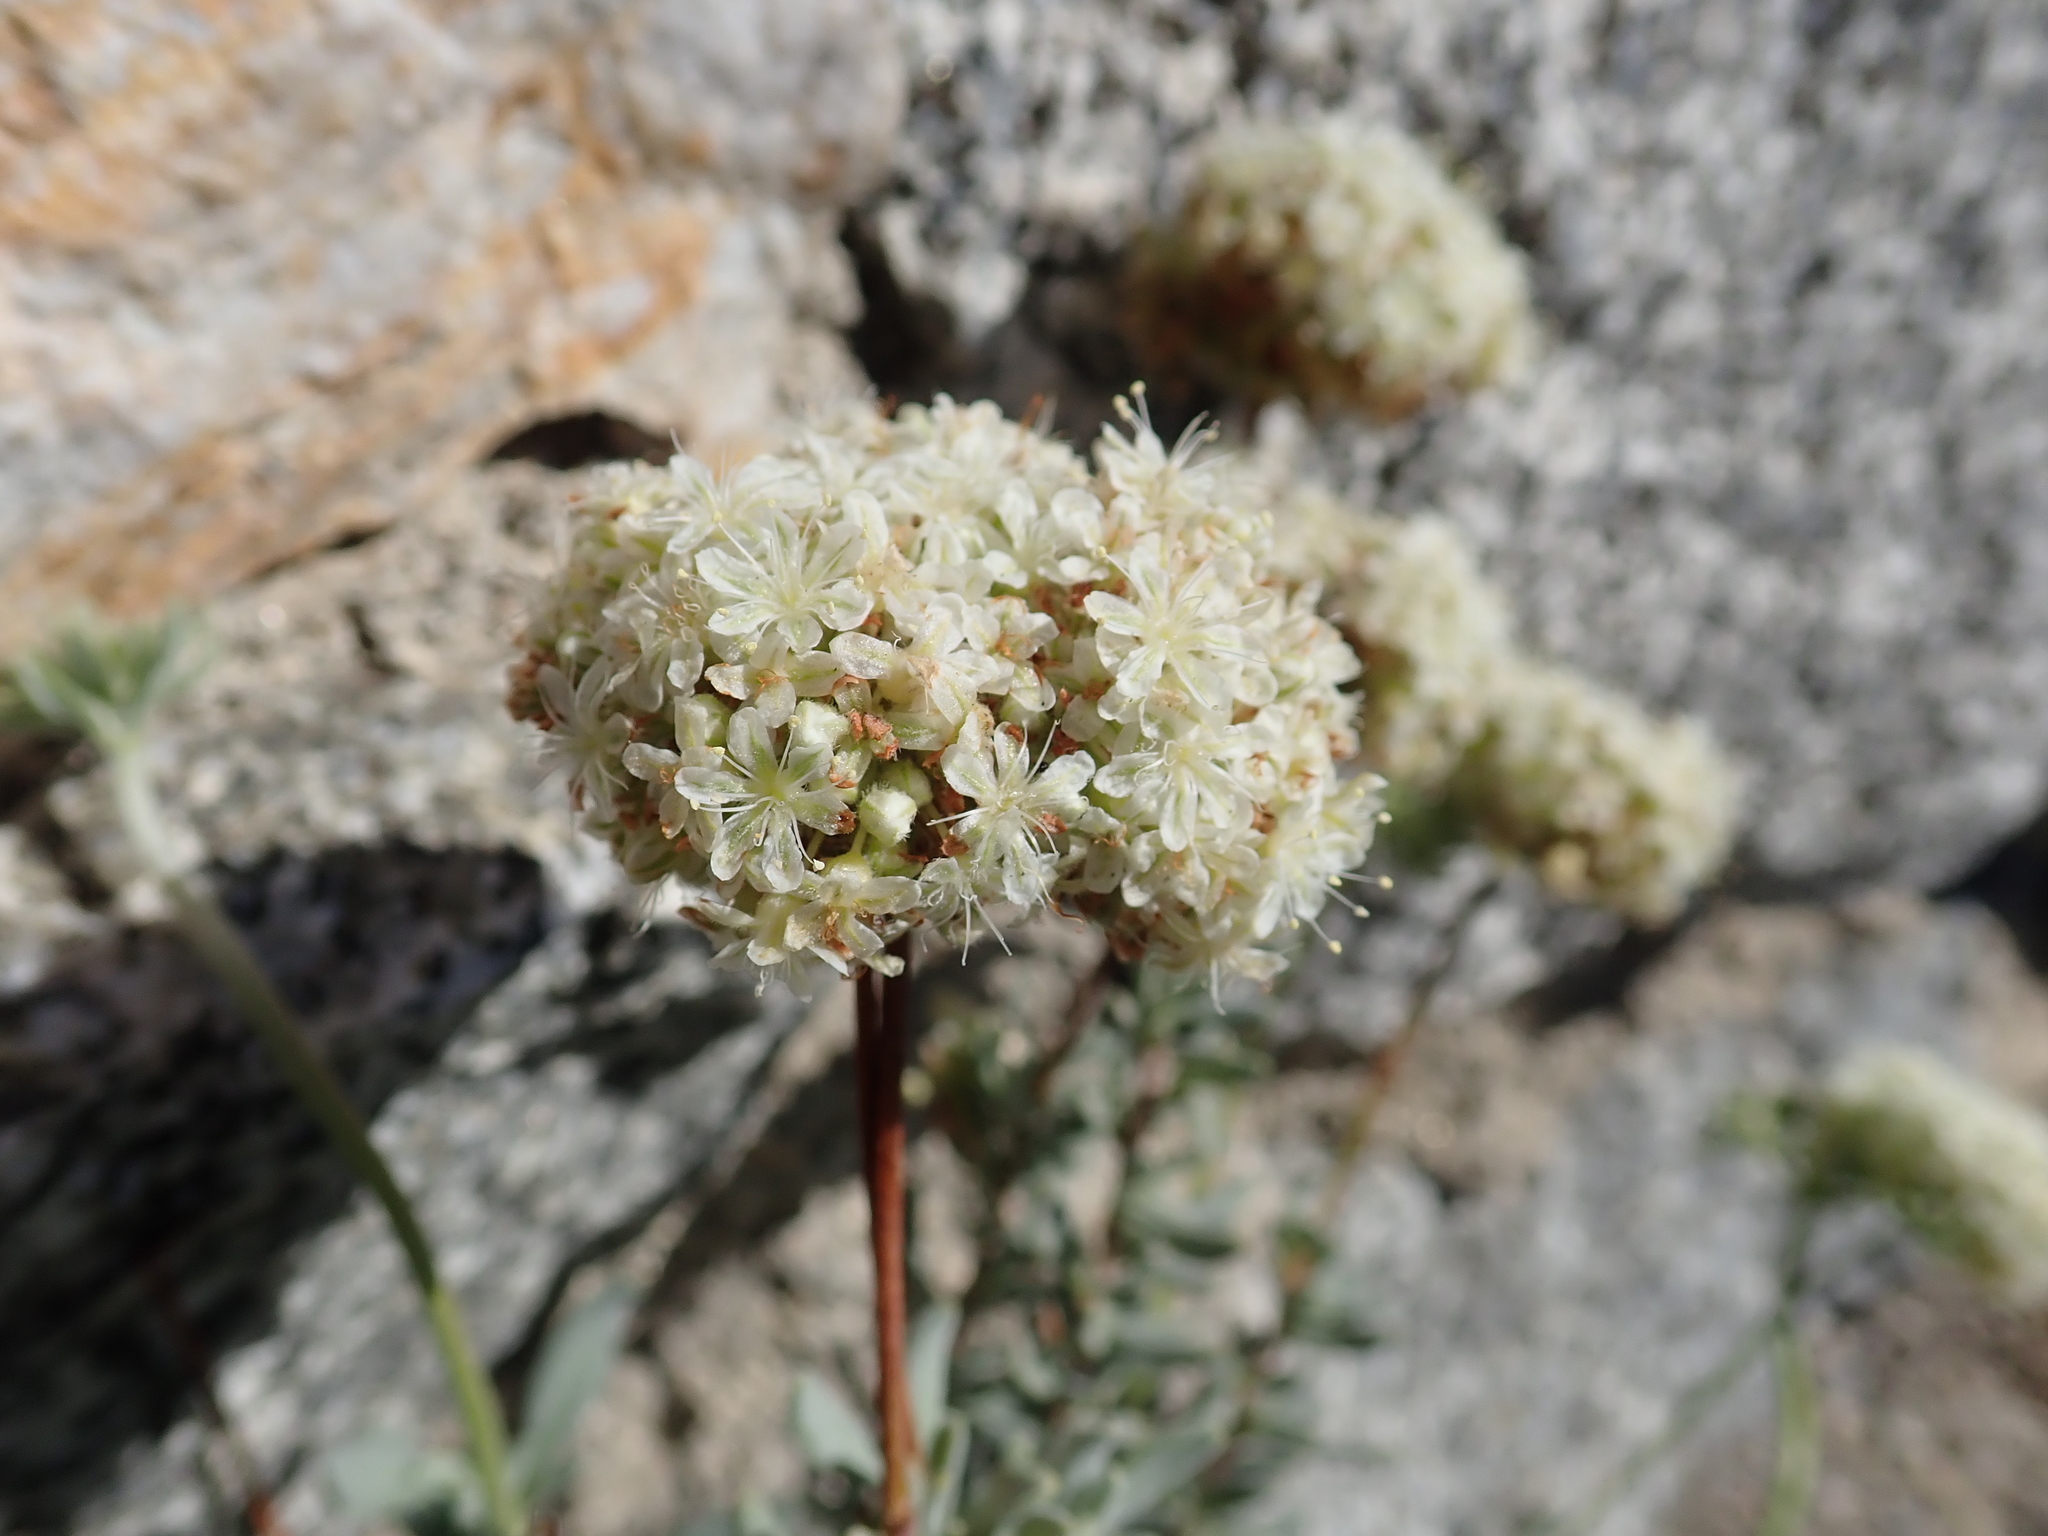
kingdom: Plantae
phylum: Tracheophyta
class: Magnoliopsida
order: Caryophyllales
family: Polygonaceae
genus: Eriogonum
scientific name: Eriogonum fasciculatum
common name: California wild buckwheat
